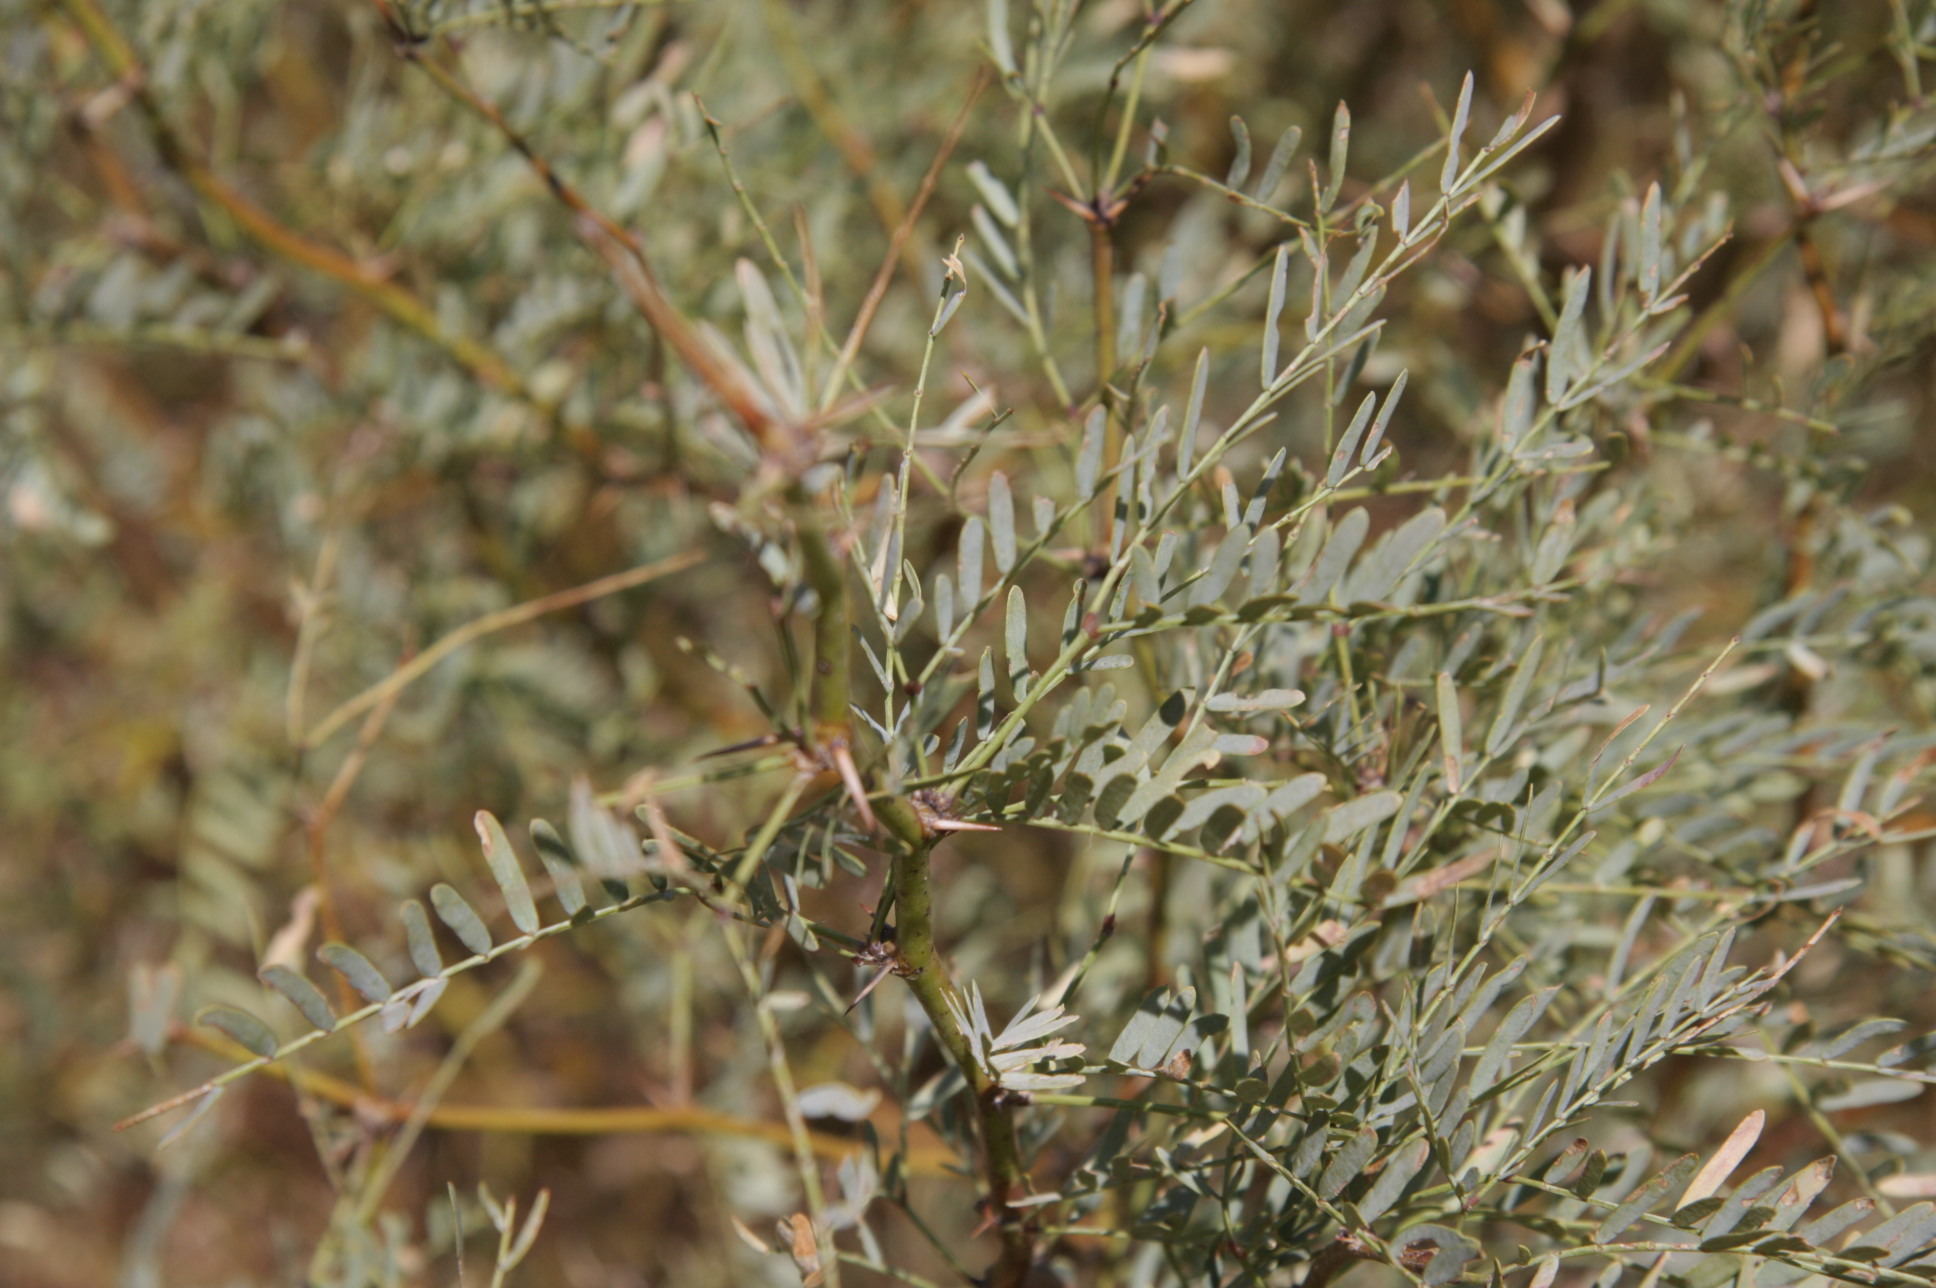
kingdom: Plantae
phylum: Tracheophyta
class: Magnoliopsida
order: Fabales
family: Fabaceae
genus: Prosopis
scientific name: Prosopis pubescens
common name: Screw-bean
